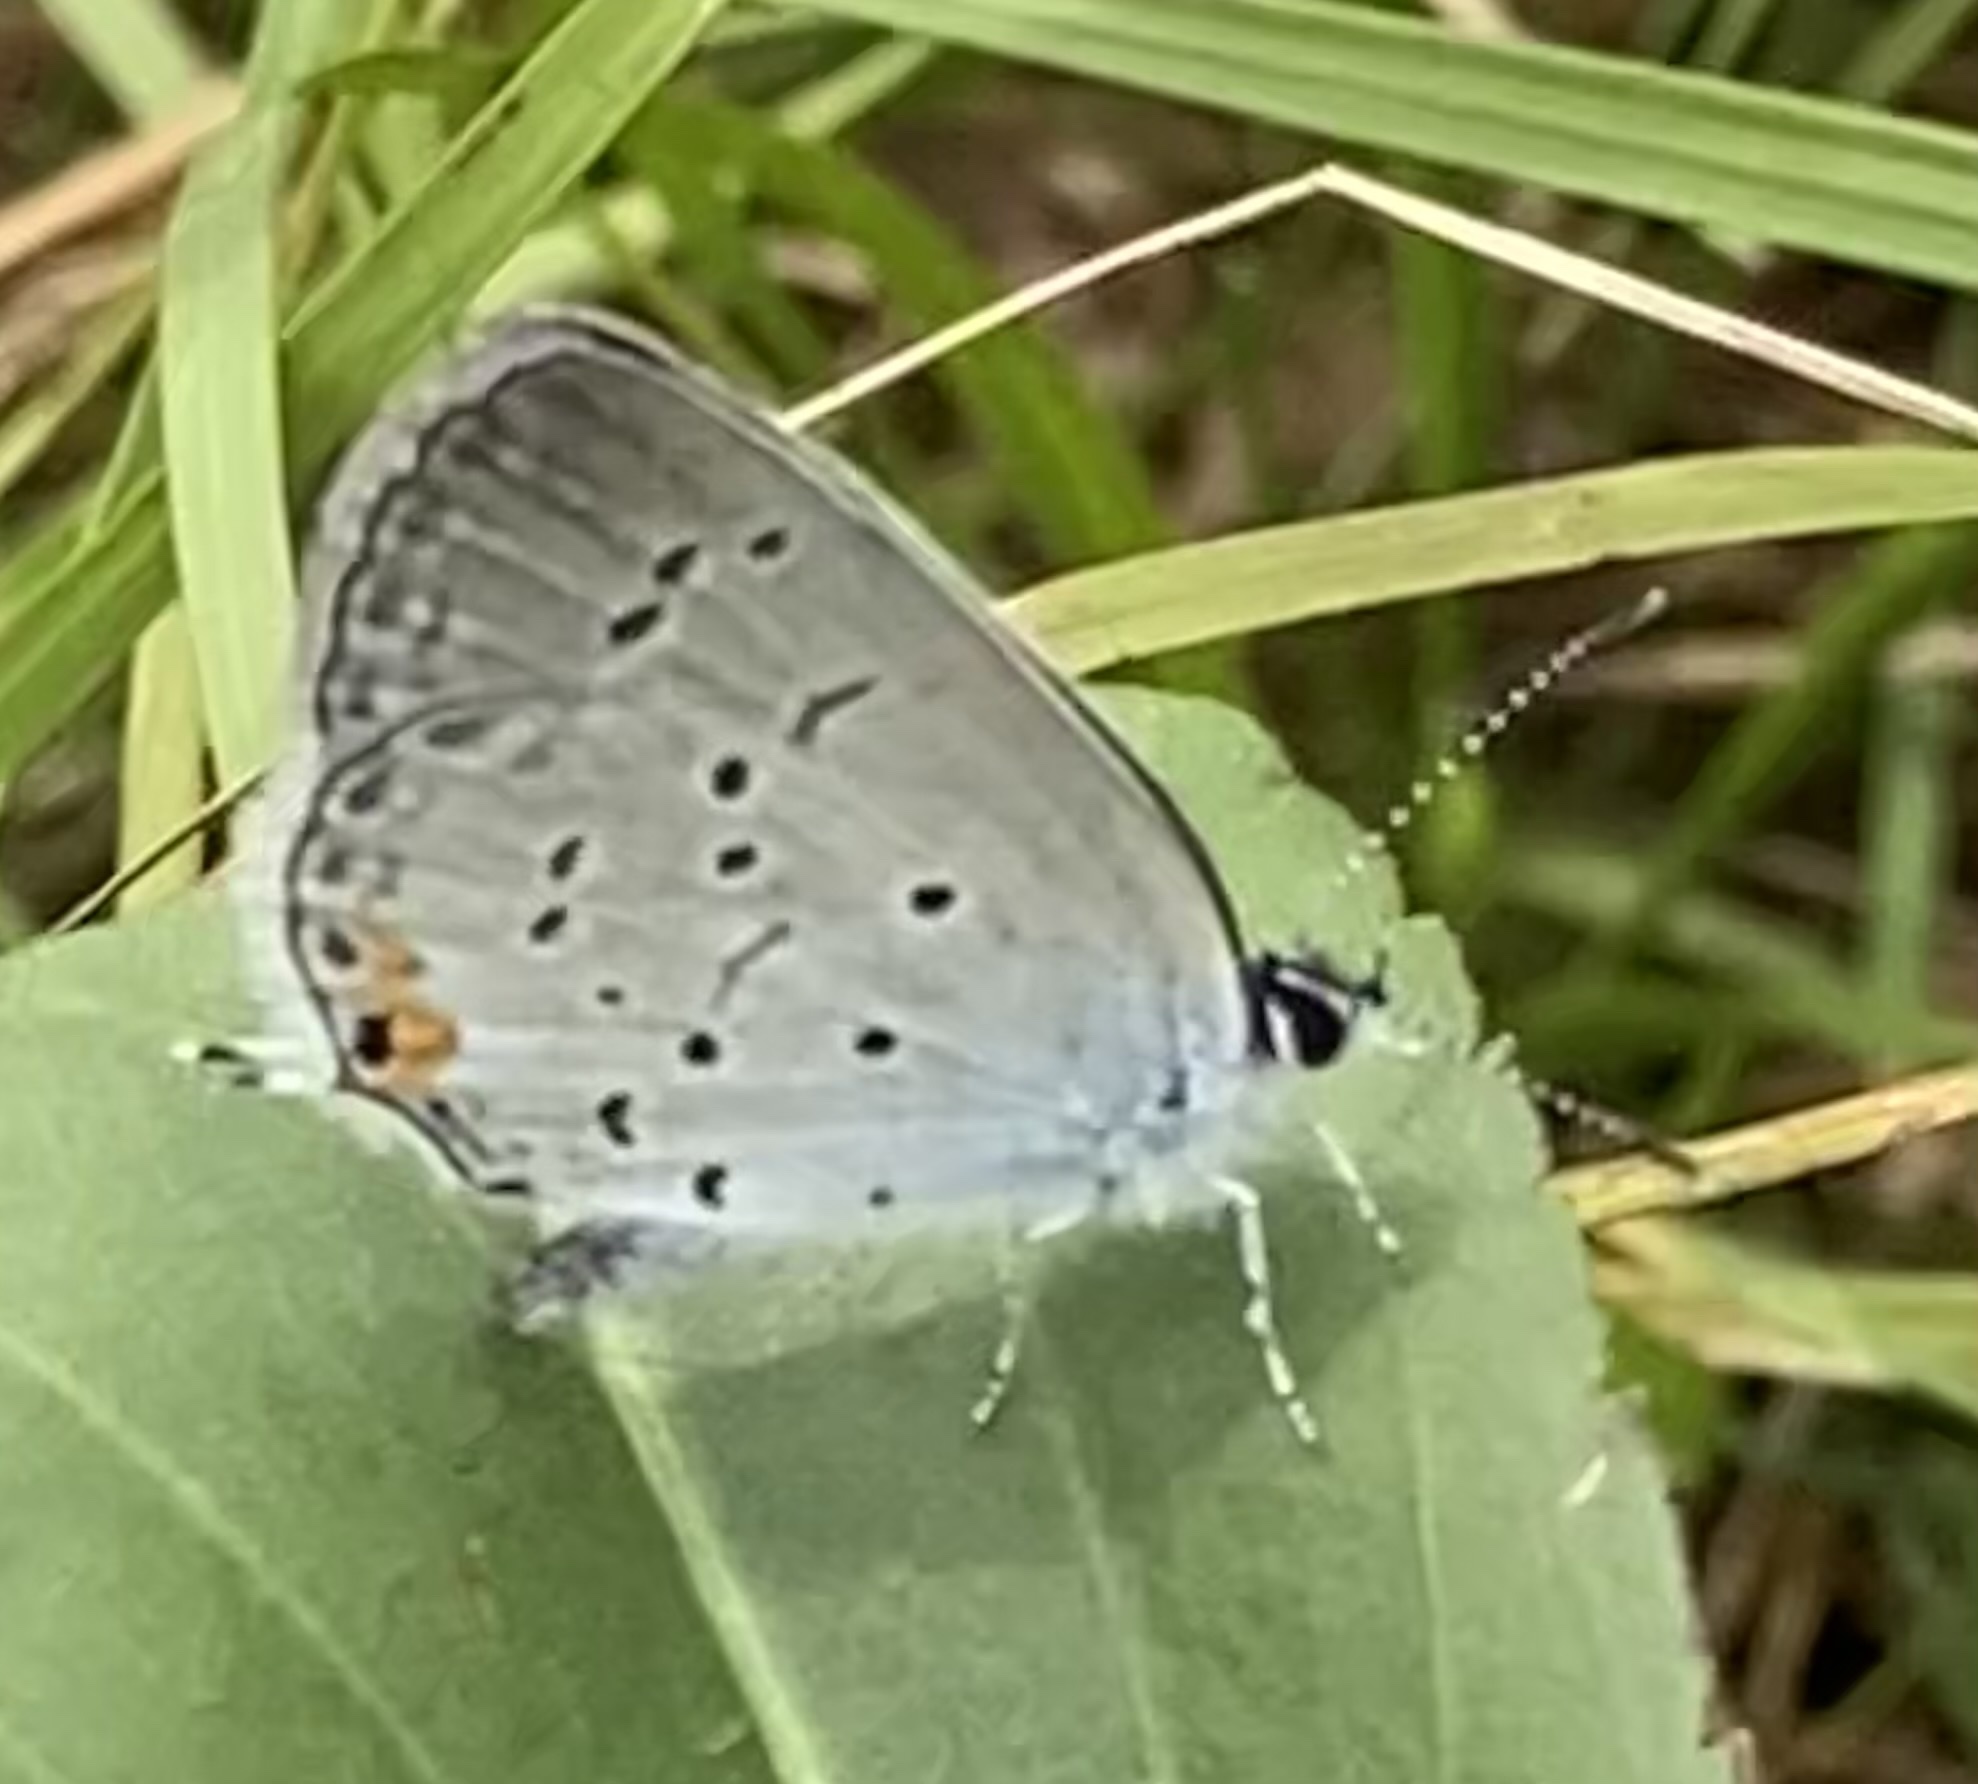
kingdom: Animalia
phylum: Arthropoda
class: Insecta
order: Lepidoptera
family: Lycaenidae
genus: Elkalyce
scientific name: Elkalyce comyntas
